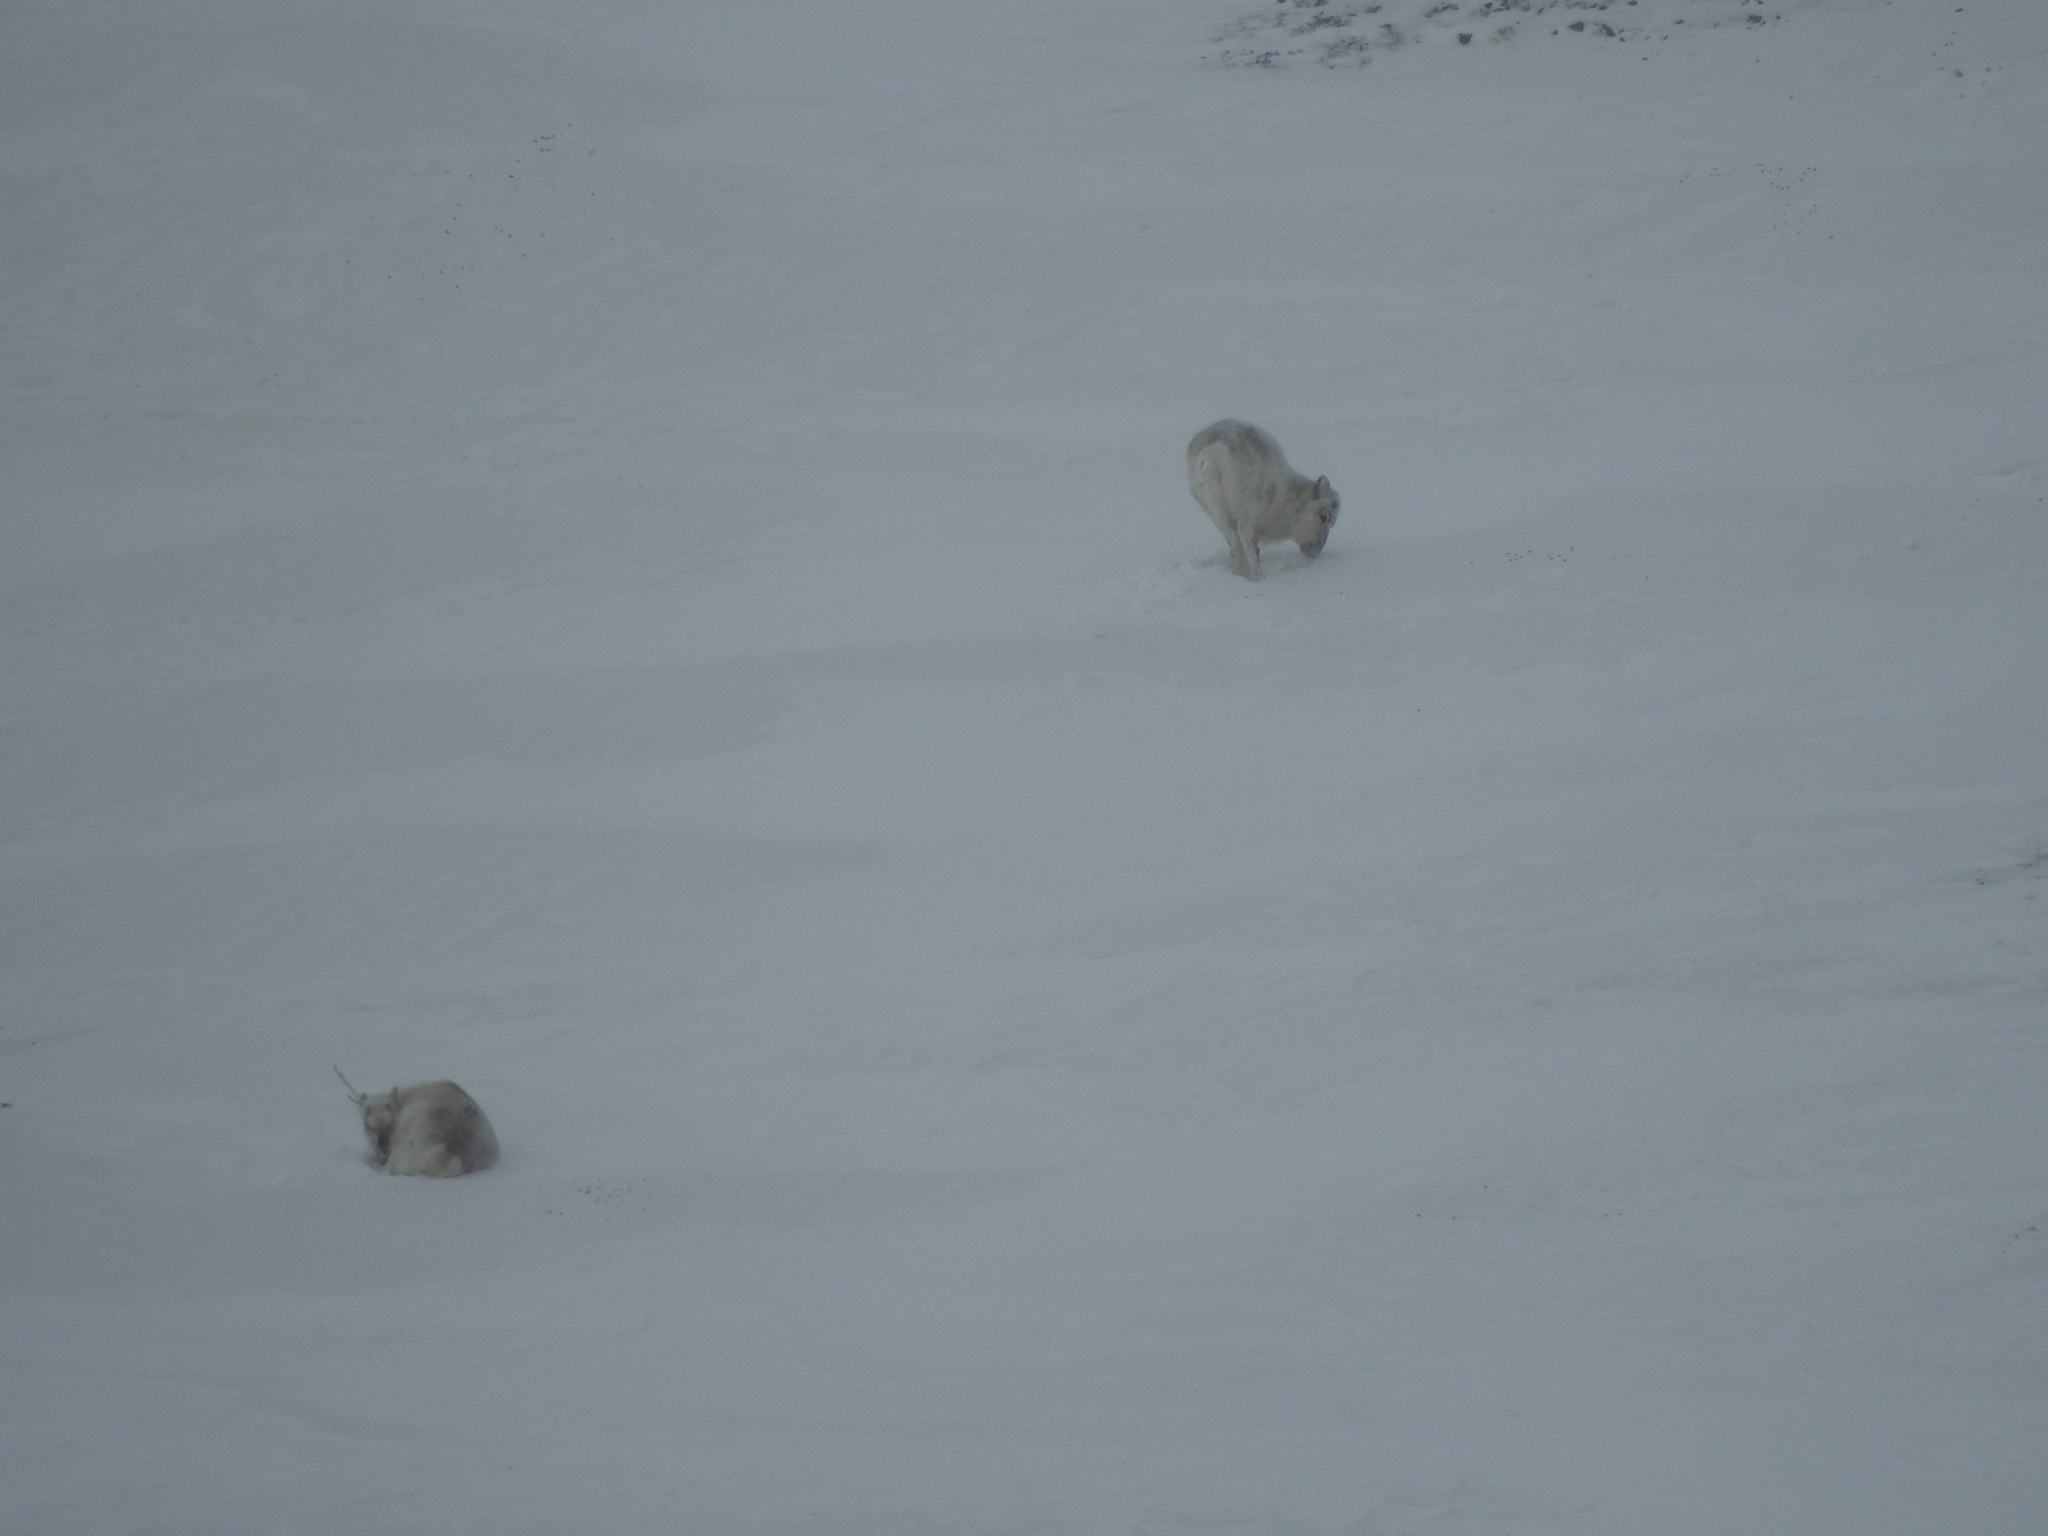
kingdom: Animalia
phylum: Chordata
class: Mammalia
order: Artiodactyla
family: Cervidae
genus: Rangifer
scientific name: Rangifer tarandus
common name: Reindeer
